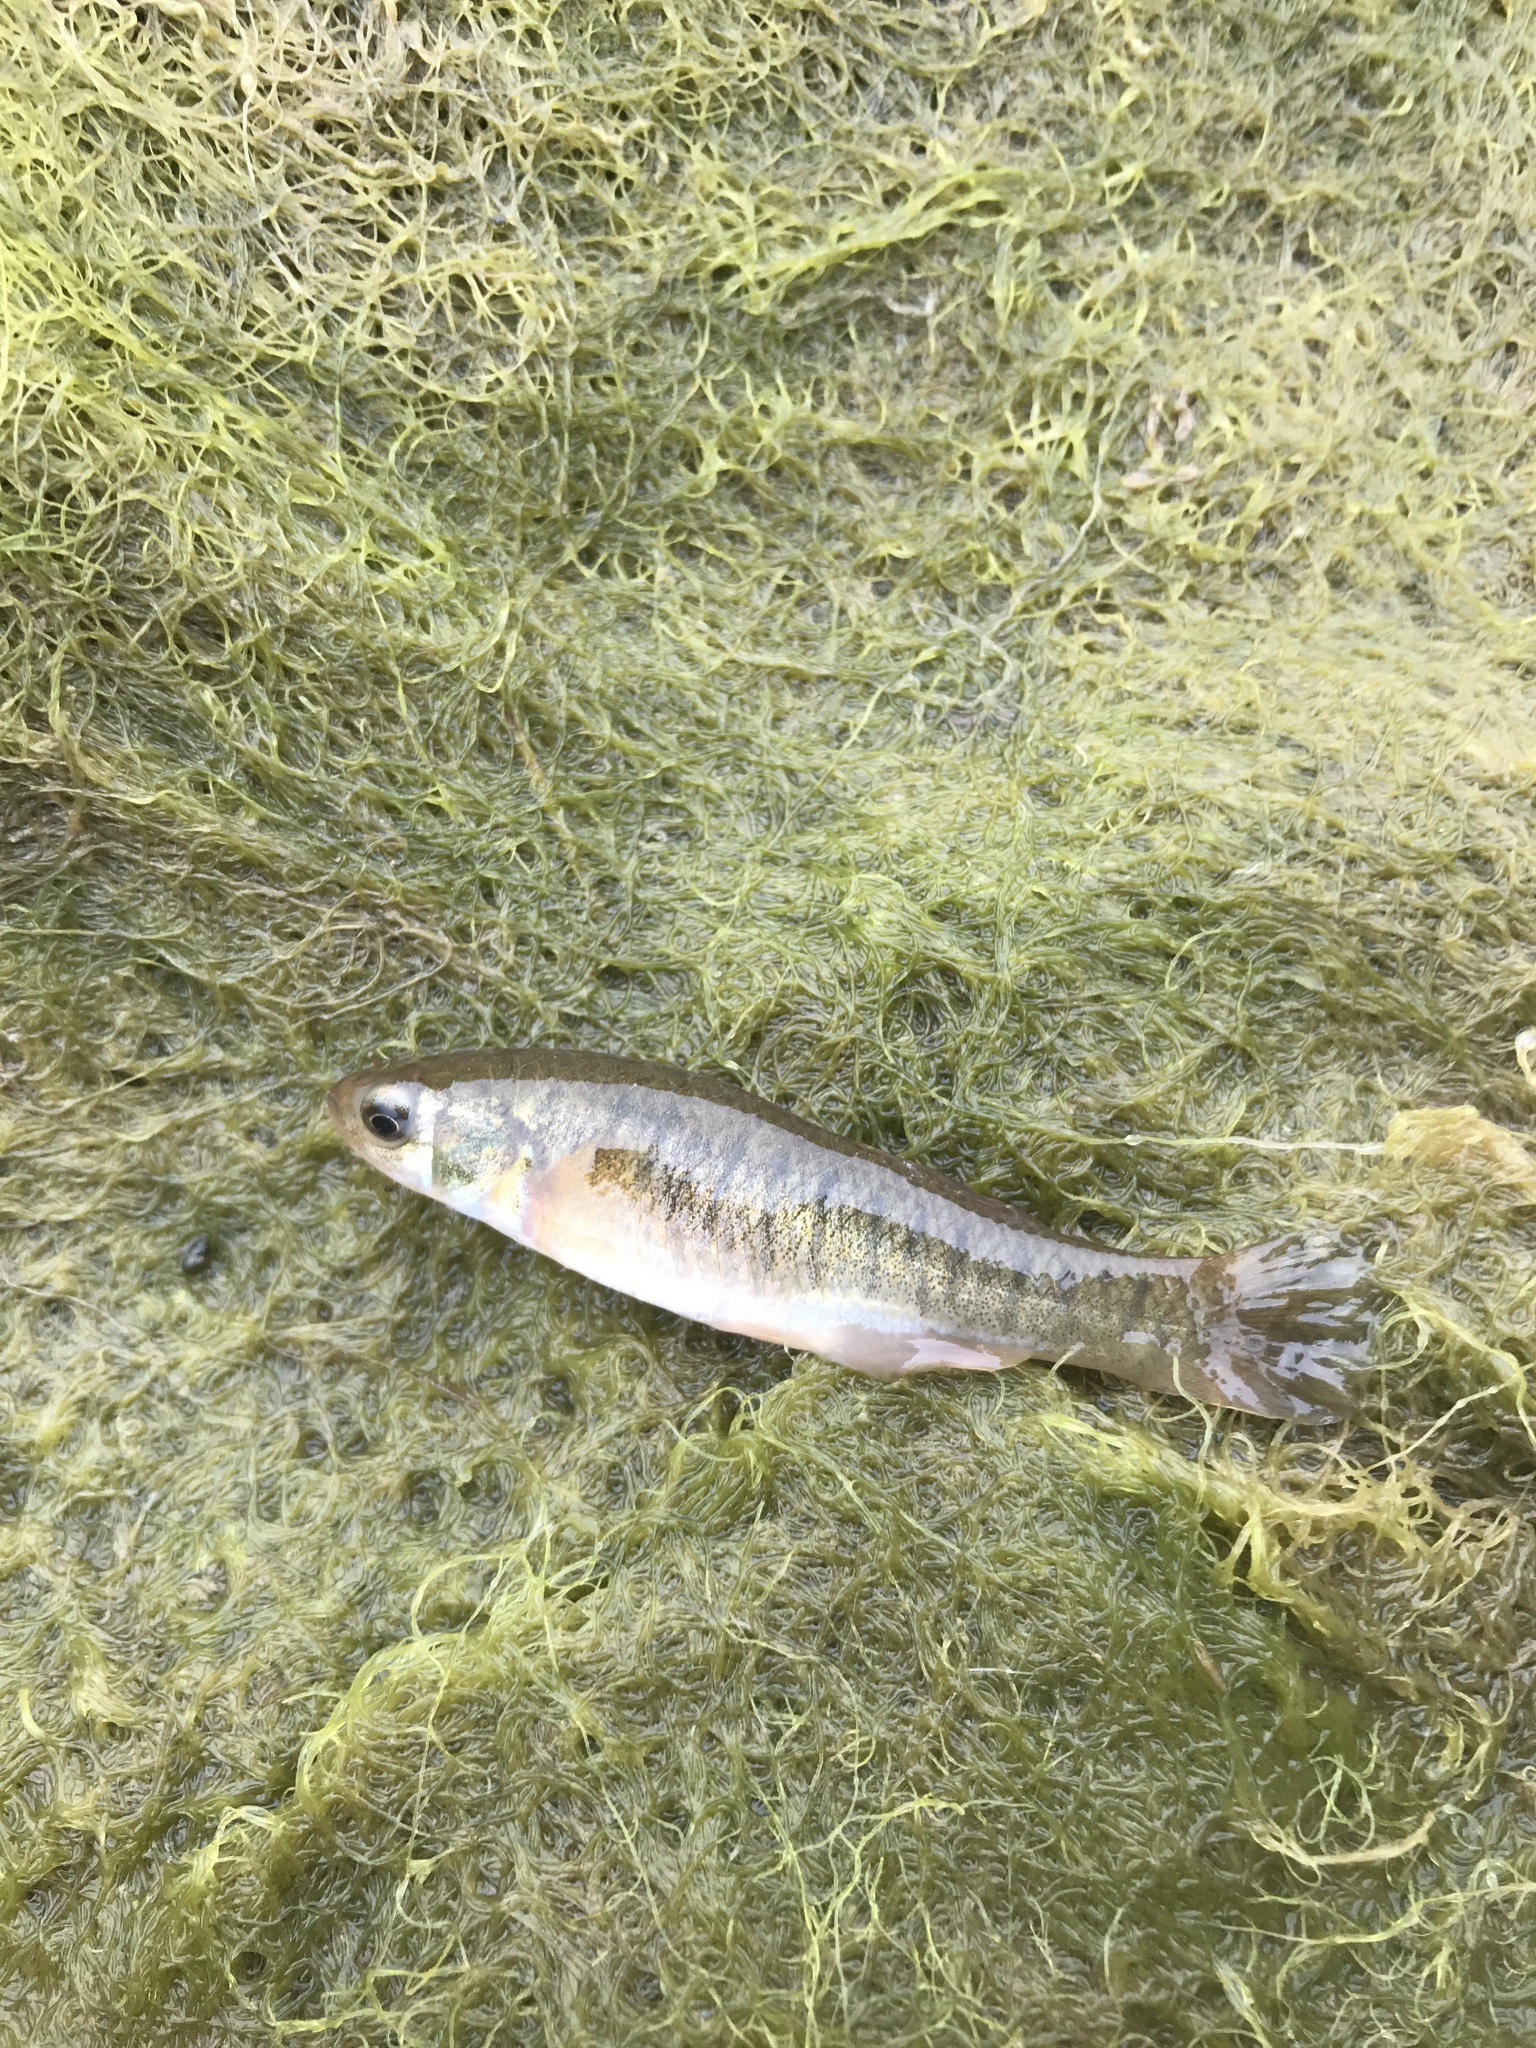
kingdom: Animalia
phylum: Chordata
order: Cyprinodontiformes
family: Fundulidae
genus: Fundulus
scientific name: Fundulus heteroclitus
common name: Mummichog
